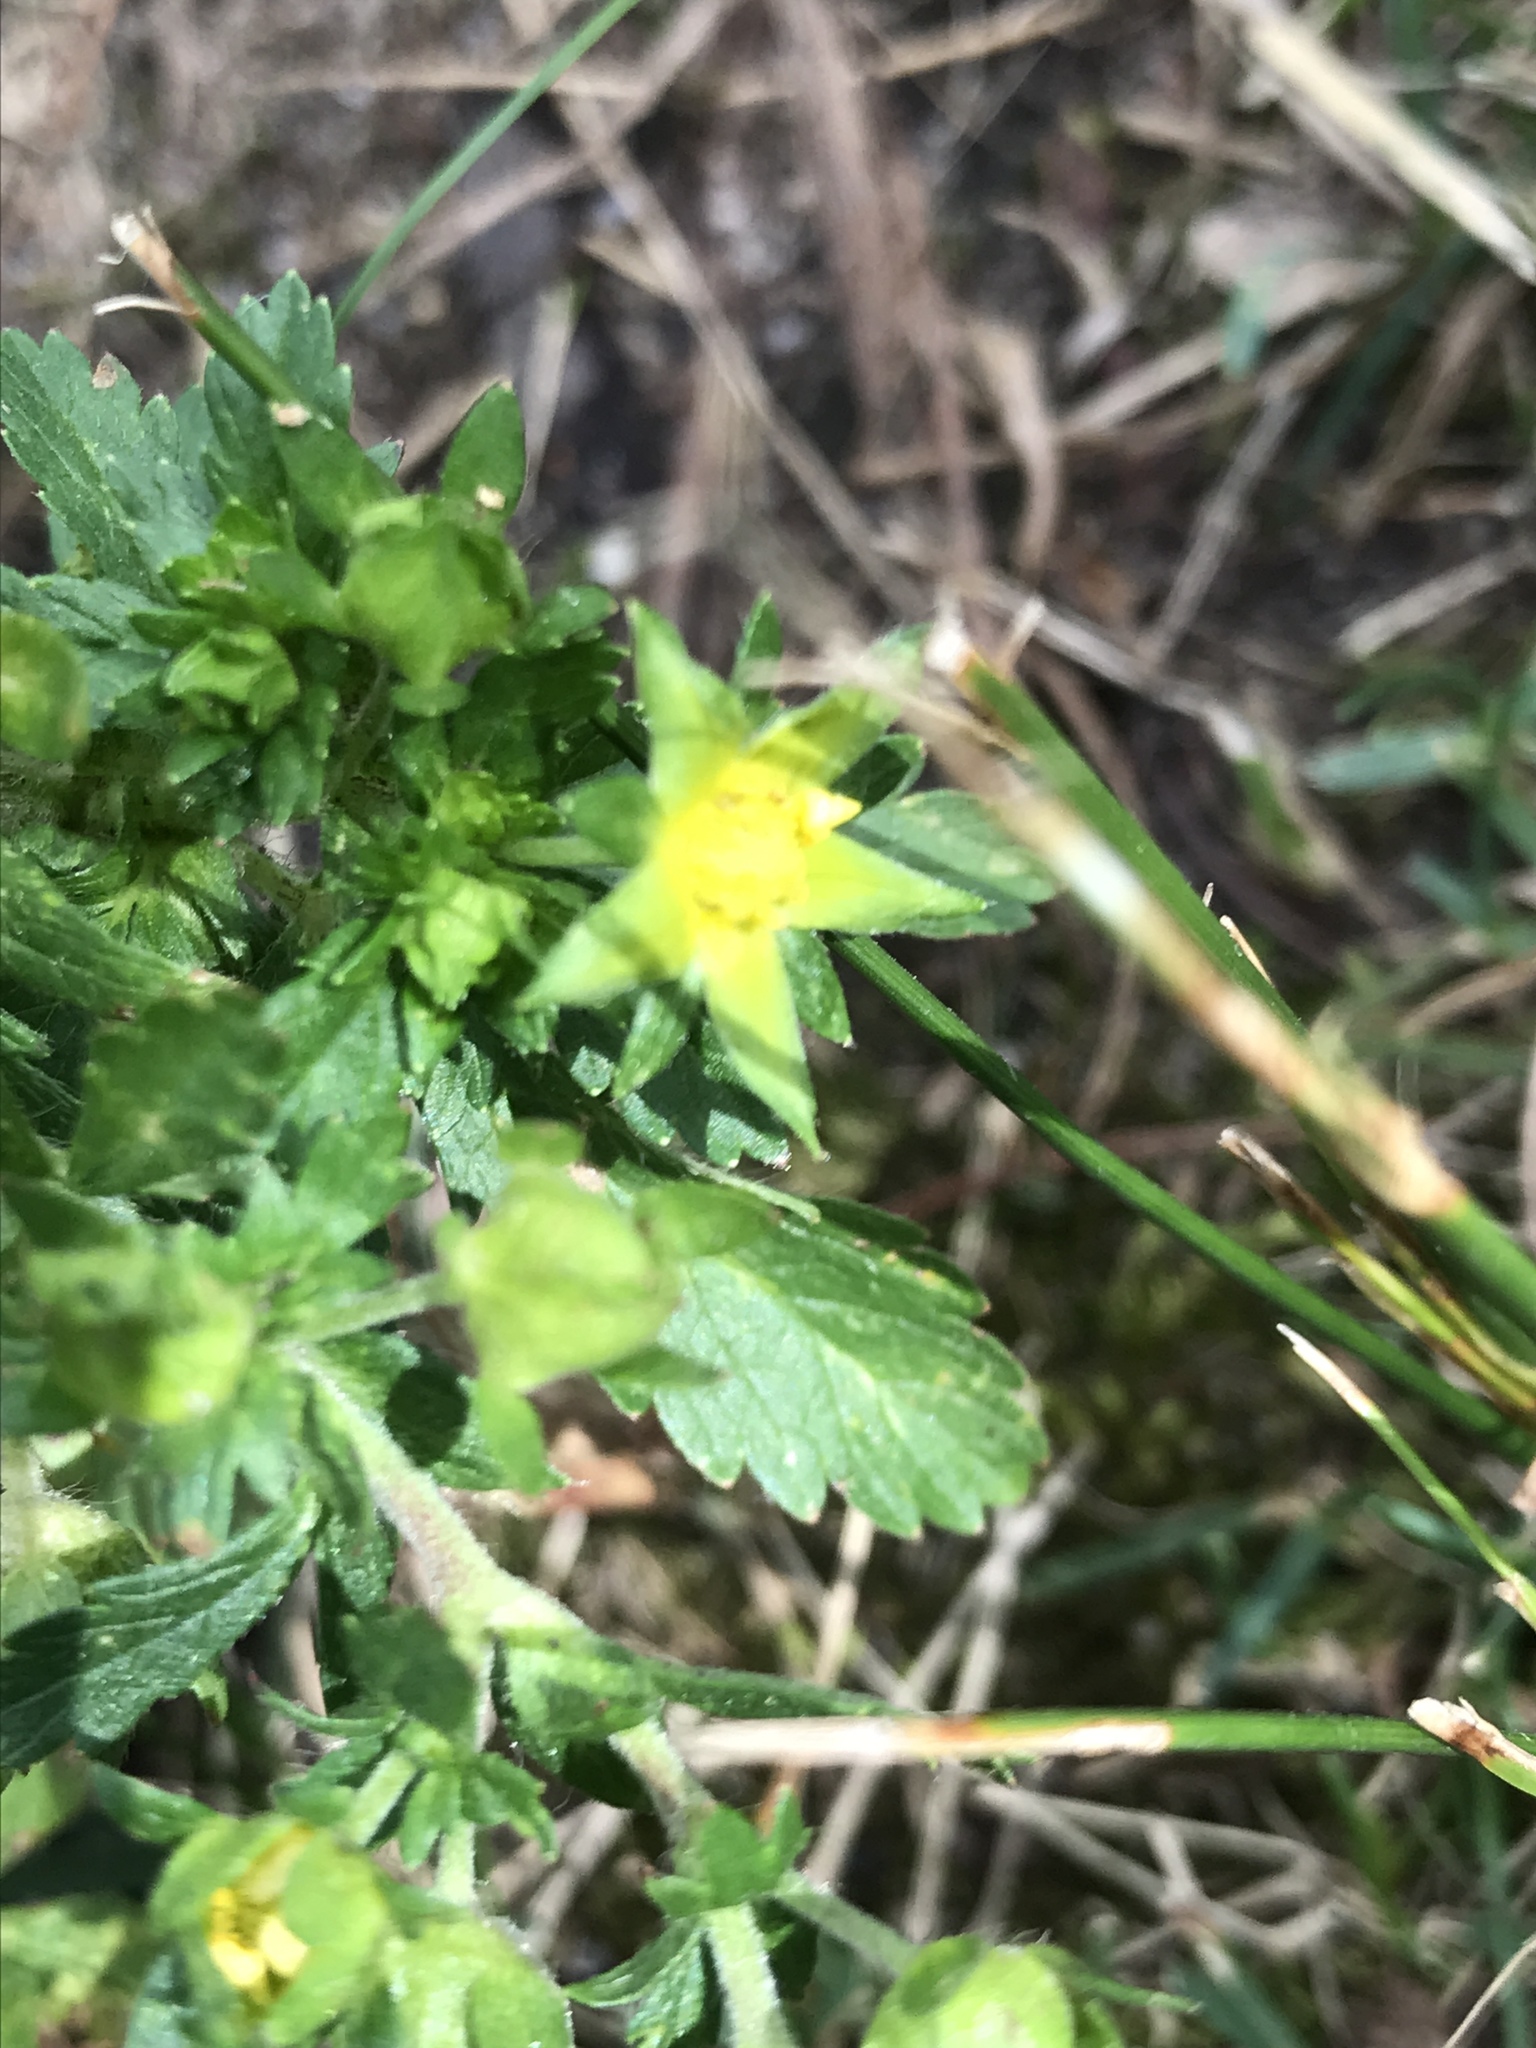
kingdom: Plantae
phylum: Tracheophyta
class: Magnoliopsida
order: Rosales
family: Rosaceae
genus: Potentilla
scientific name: Potentilla norvegica
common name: Ternate-leaved cinquefoil
